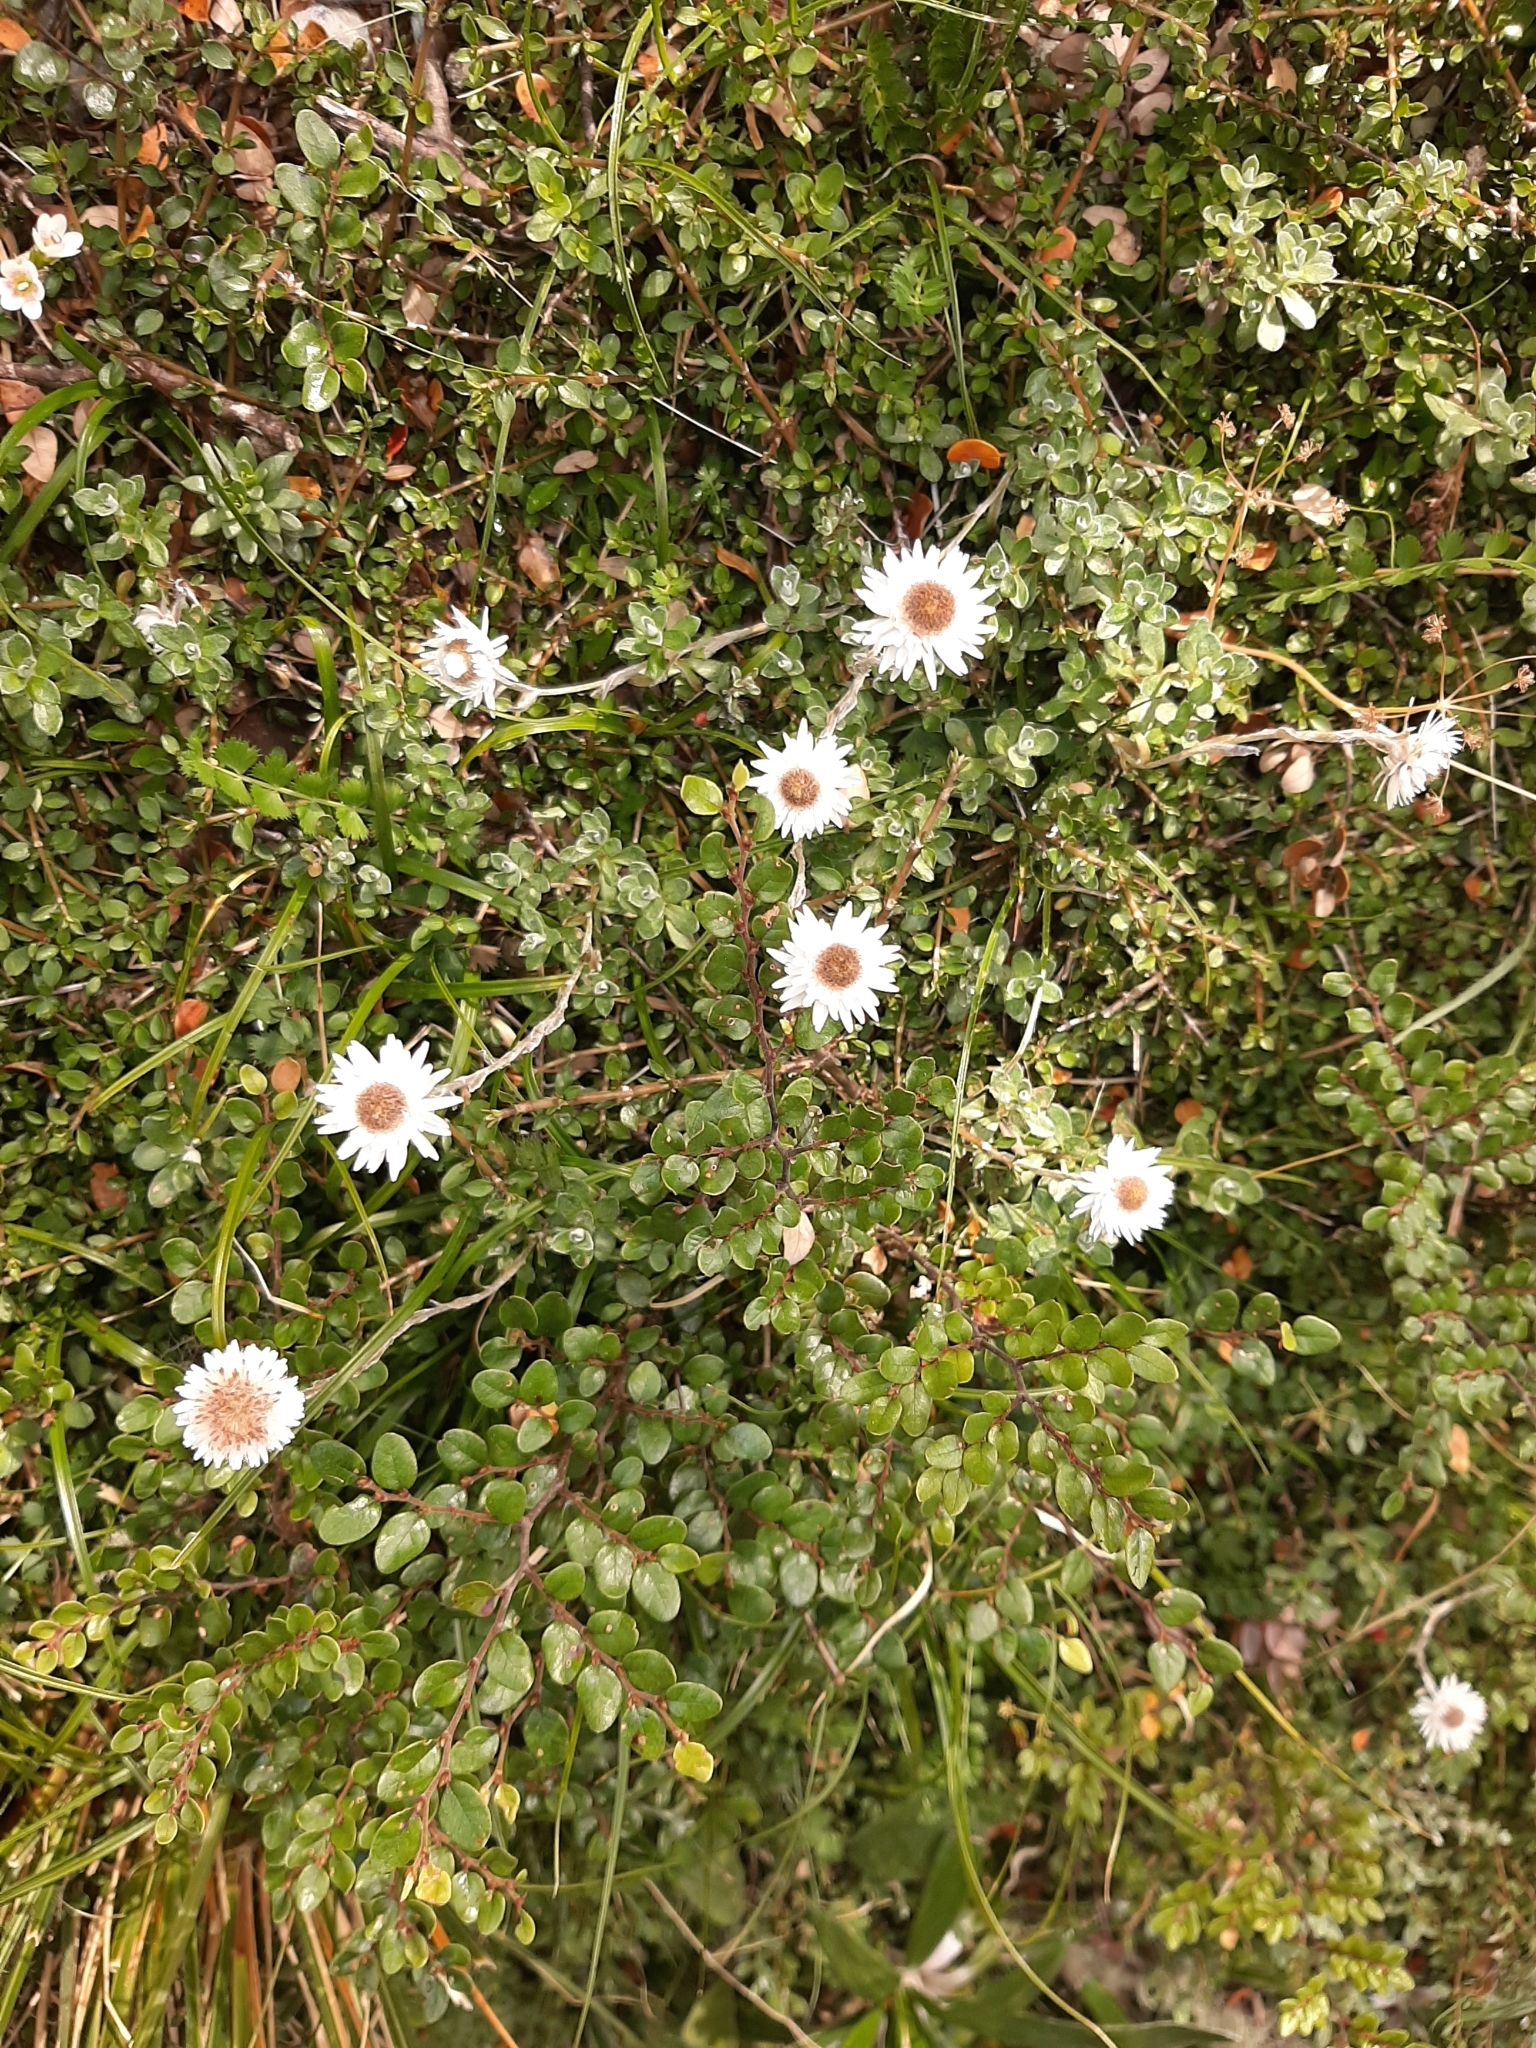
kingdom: Plantae
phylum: Tracheophyta
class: Magnoliopsida
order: Asterales
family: Asteraceae
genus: Anaphalioides
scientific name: Anaphalioides bellidioides
